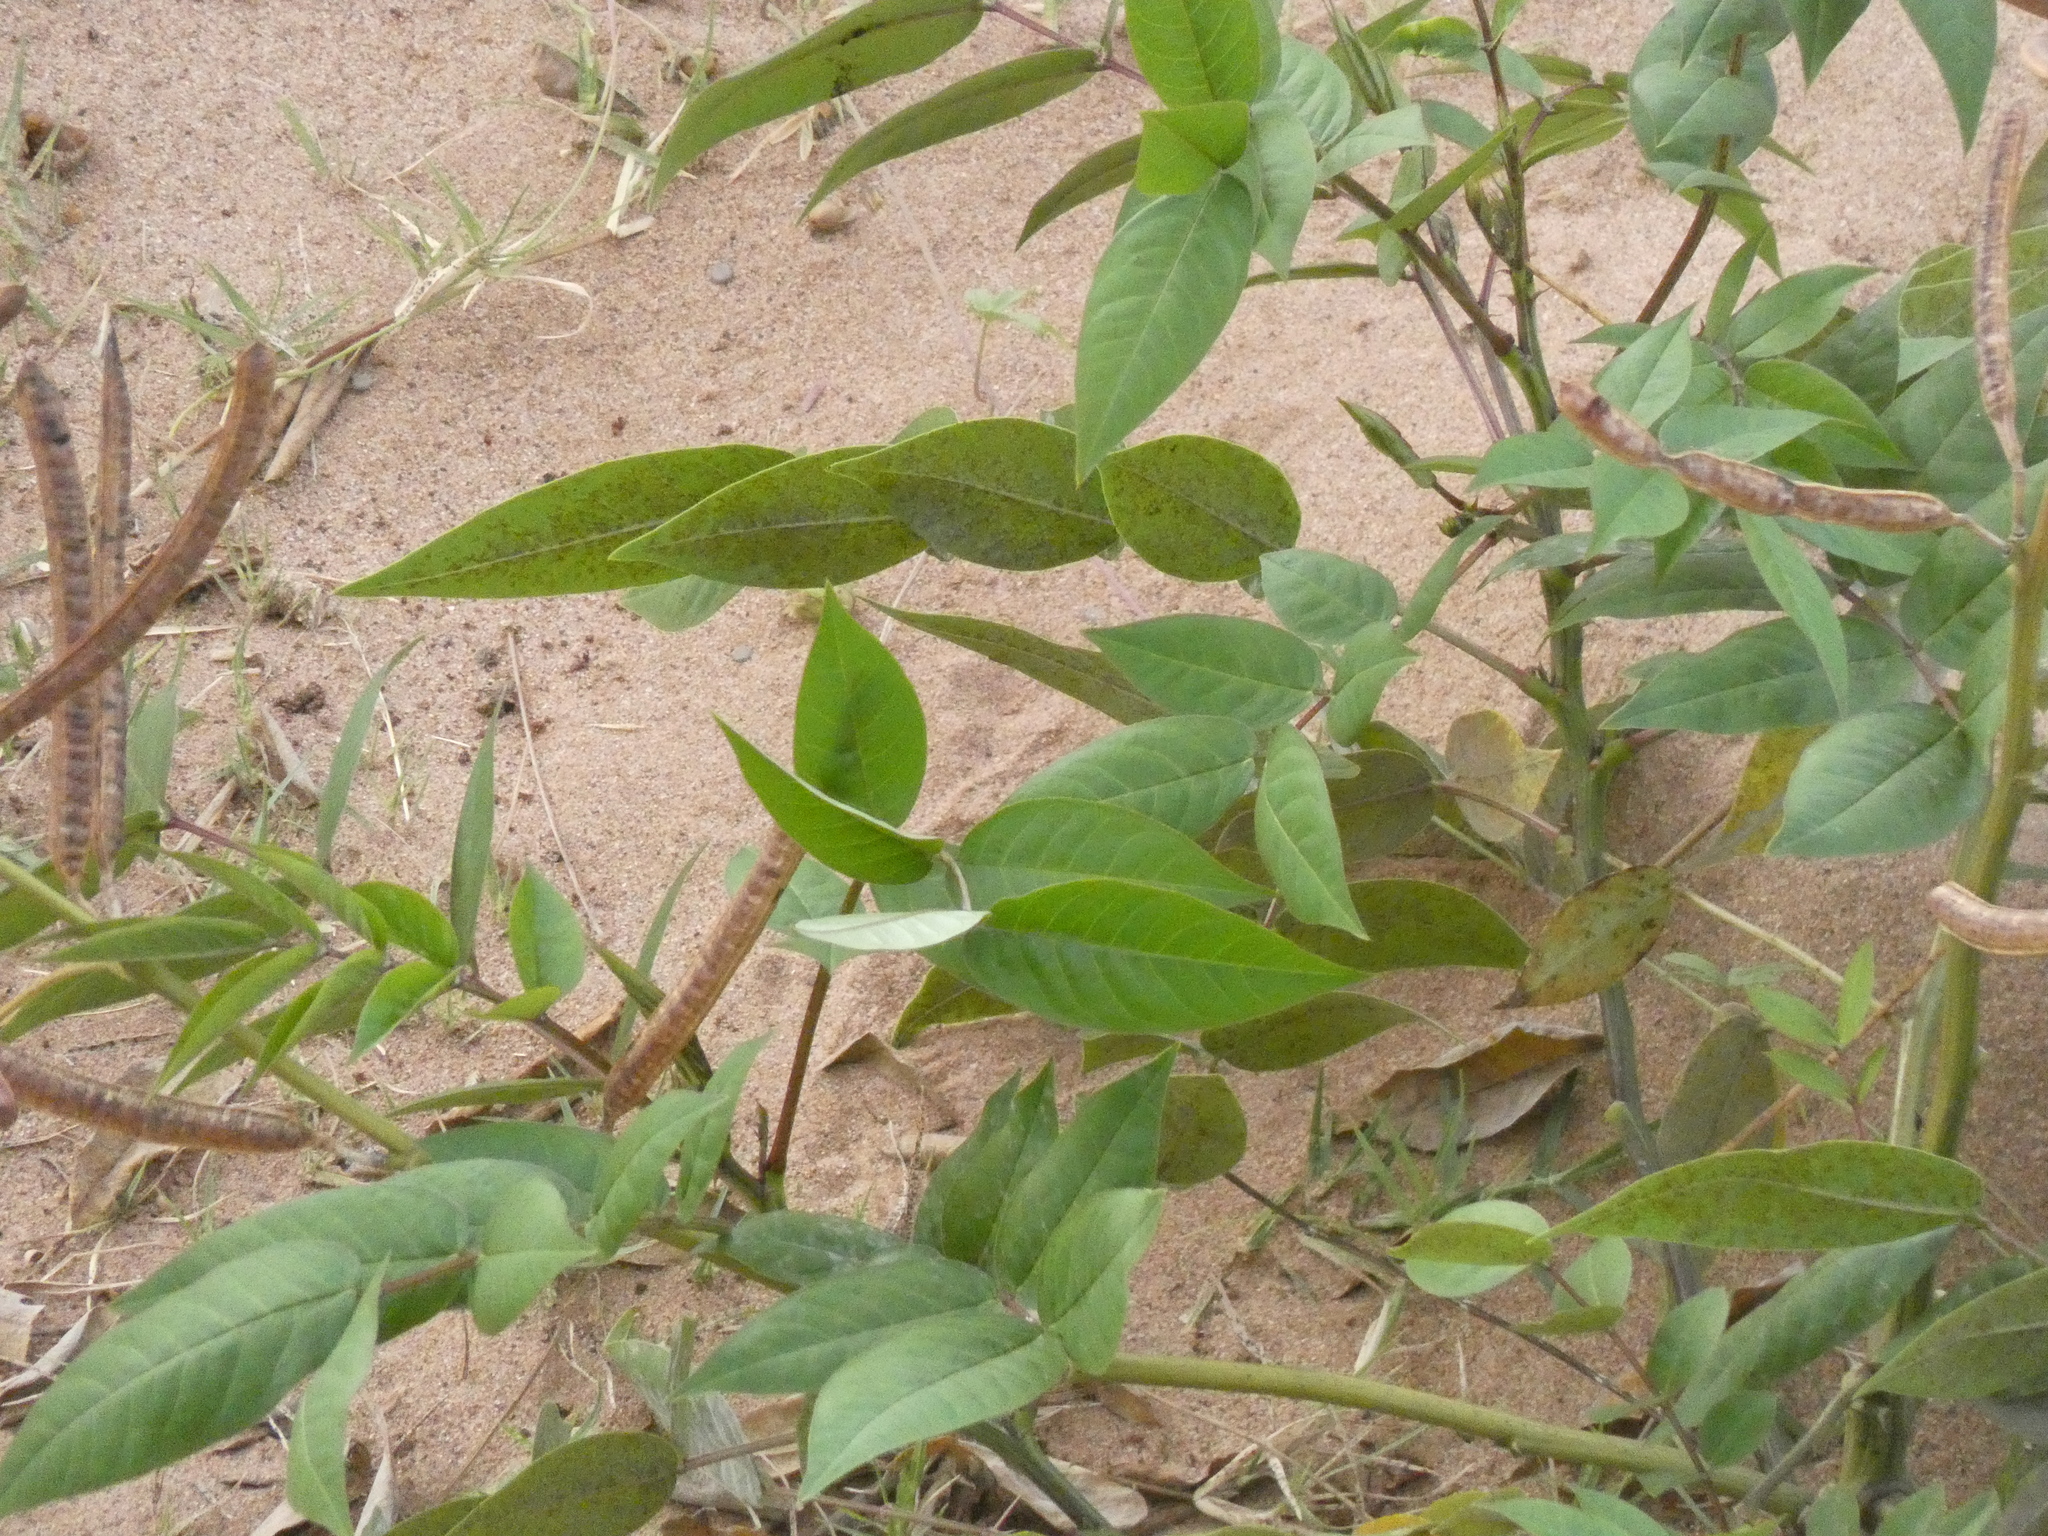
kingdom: Plantae
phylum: Tracheophyta
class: Magnoliopsida
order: Fabales
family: Fabaceae
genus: Senna
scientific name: Senna occidentalis
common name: Septicweed
